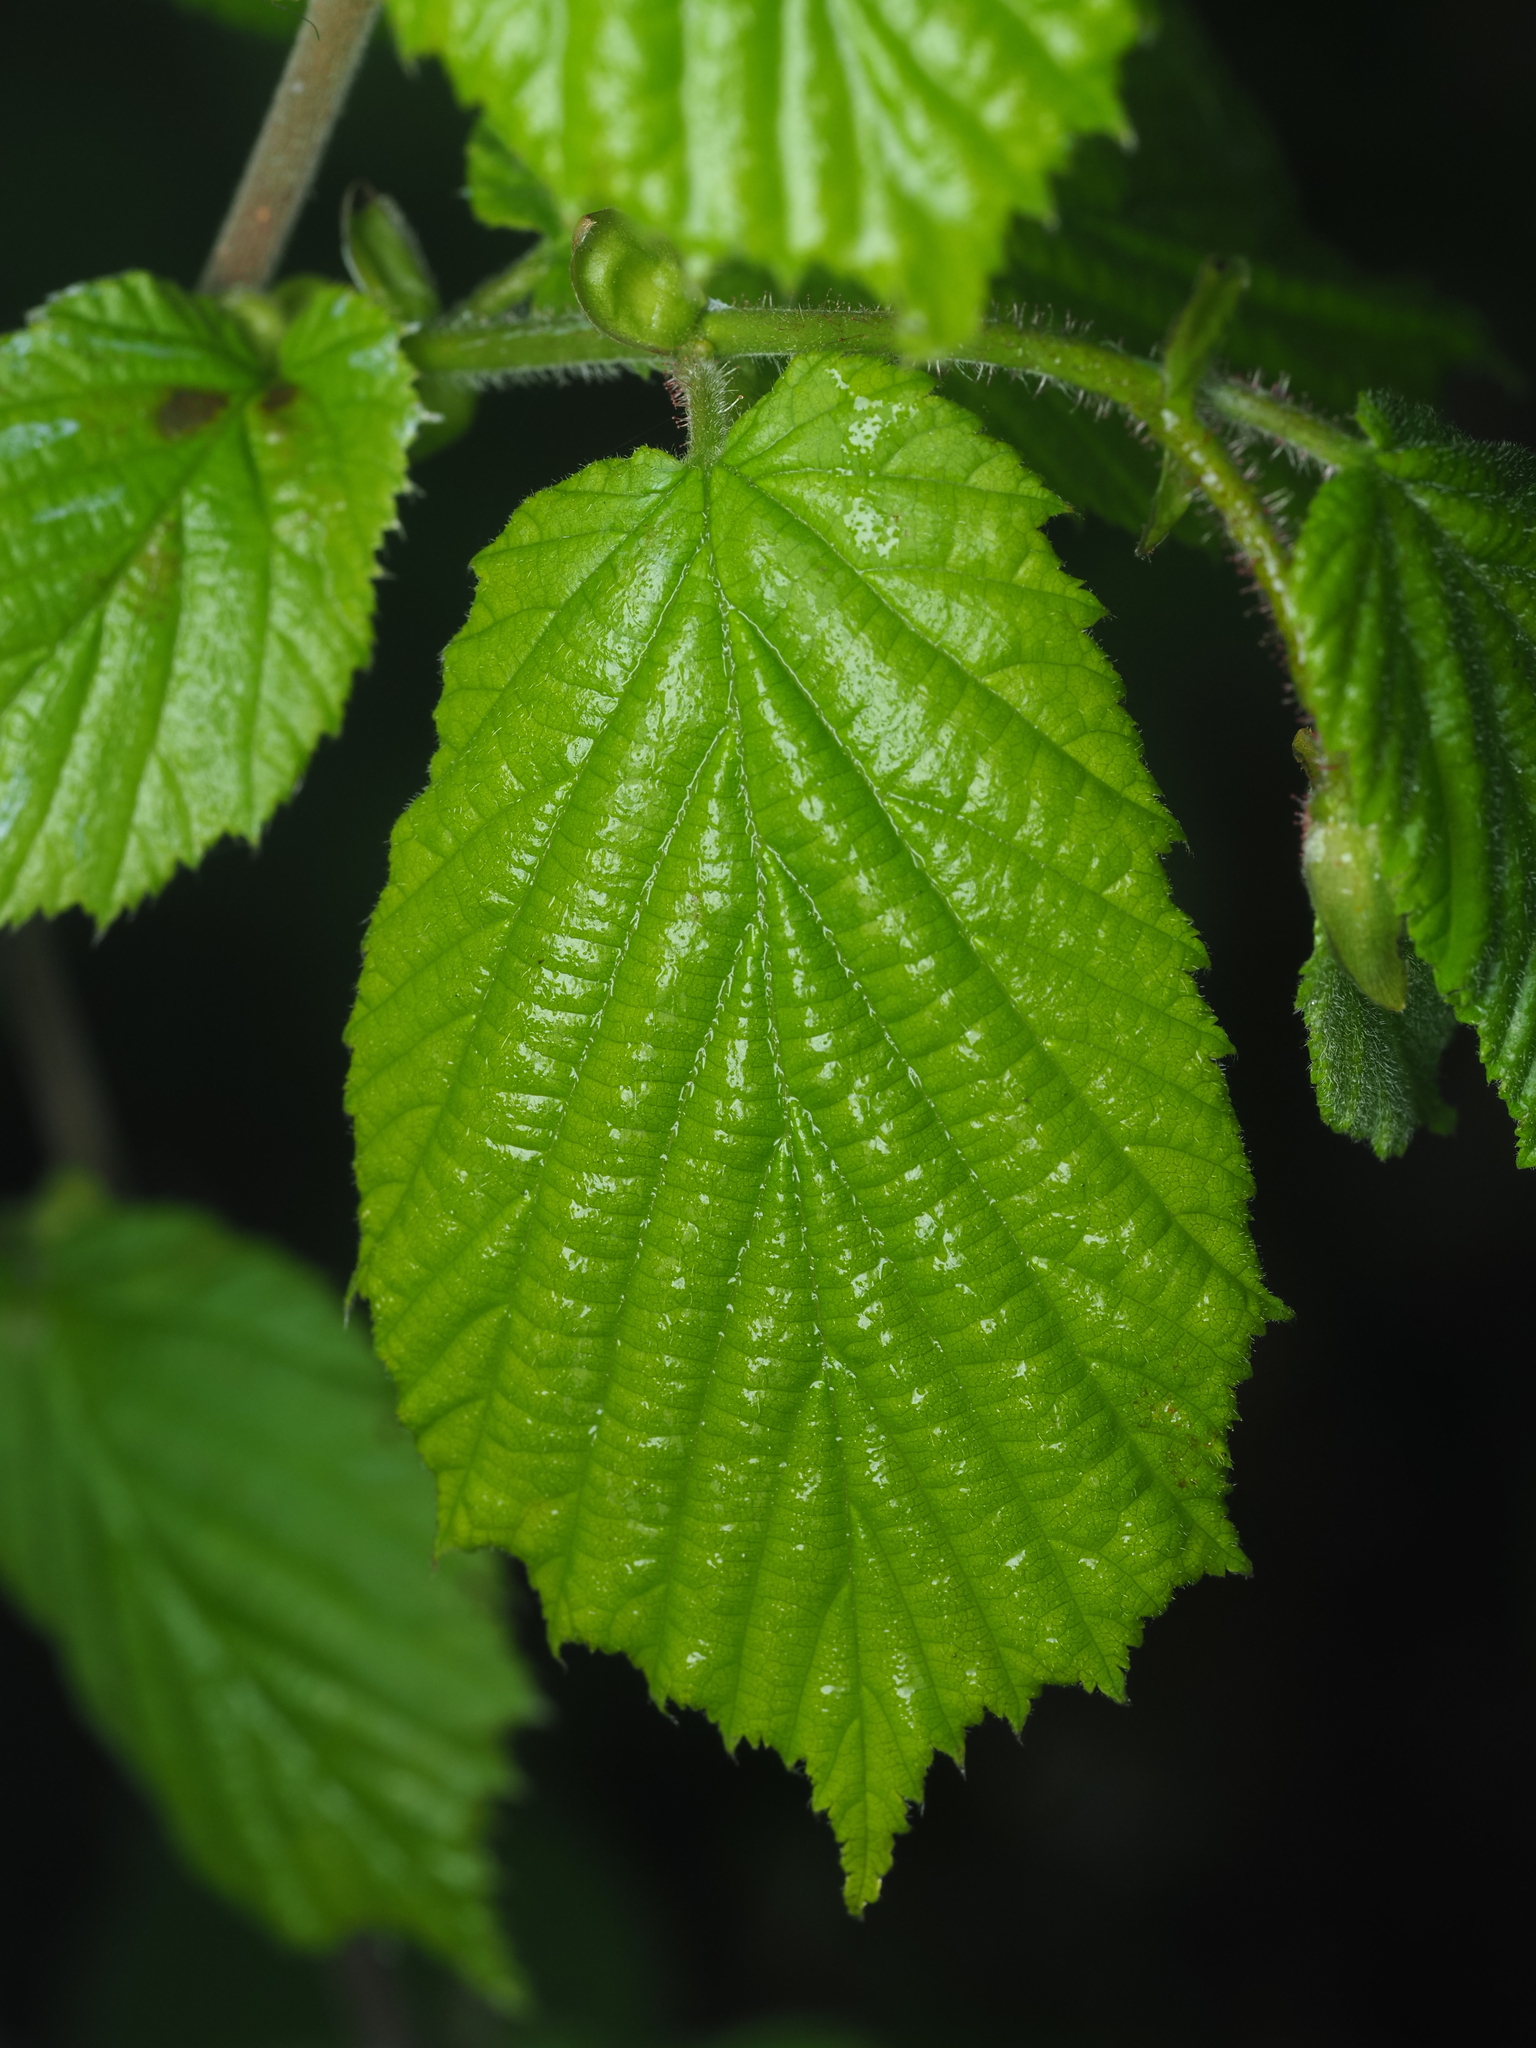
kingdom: Plantae
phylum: Tracheophyta
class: Magnoliopsida
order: Fagales
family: Betulaceae
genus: Corylus
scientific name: Corylus avellana
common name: European hazel
